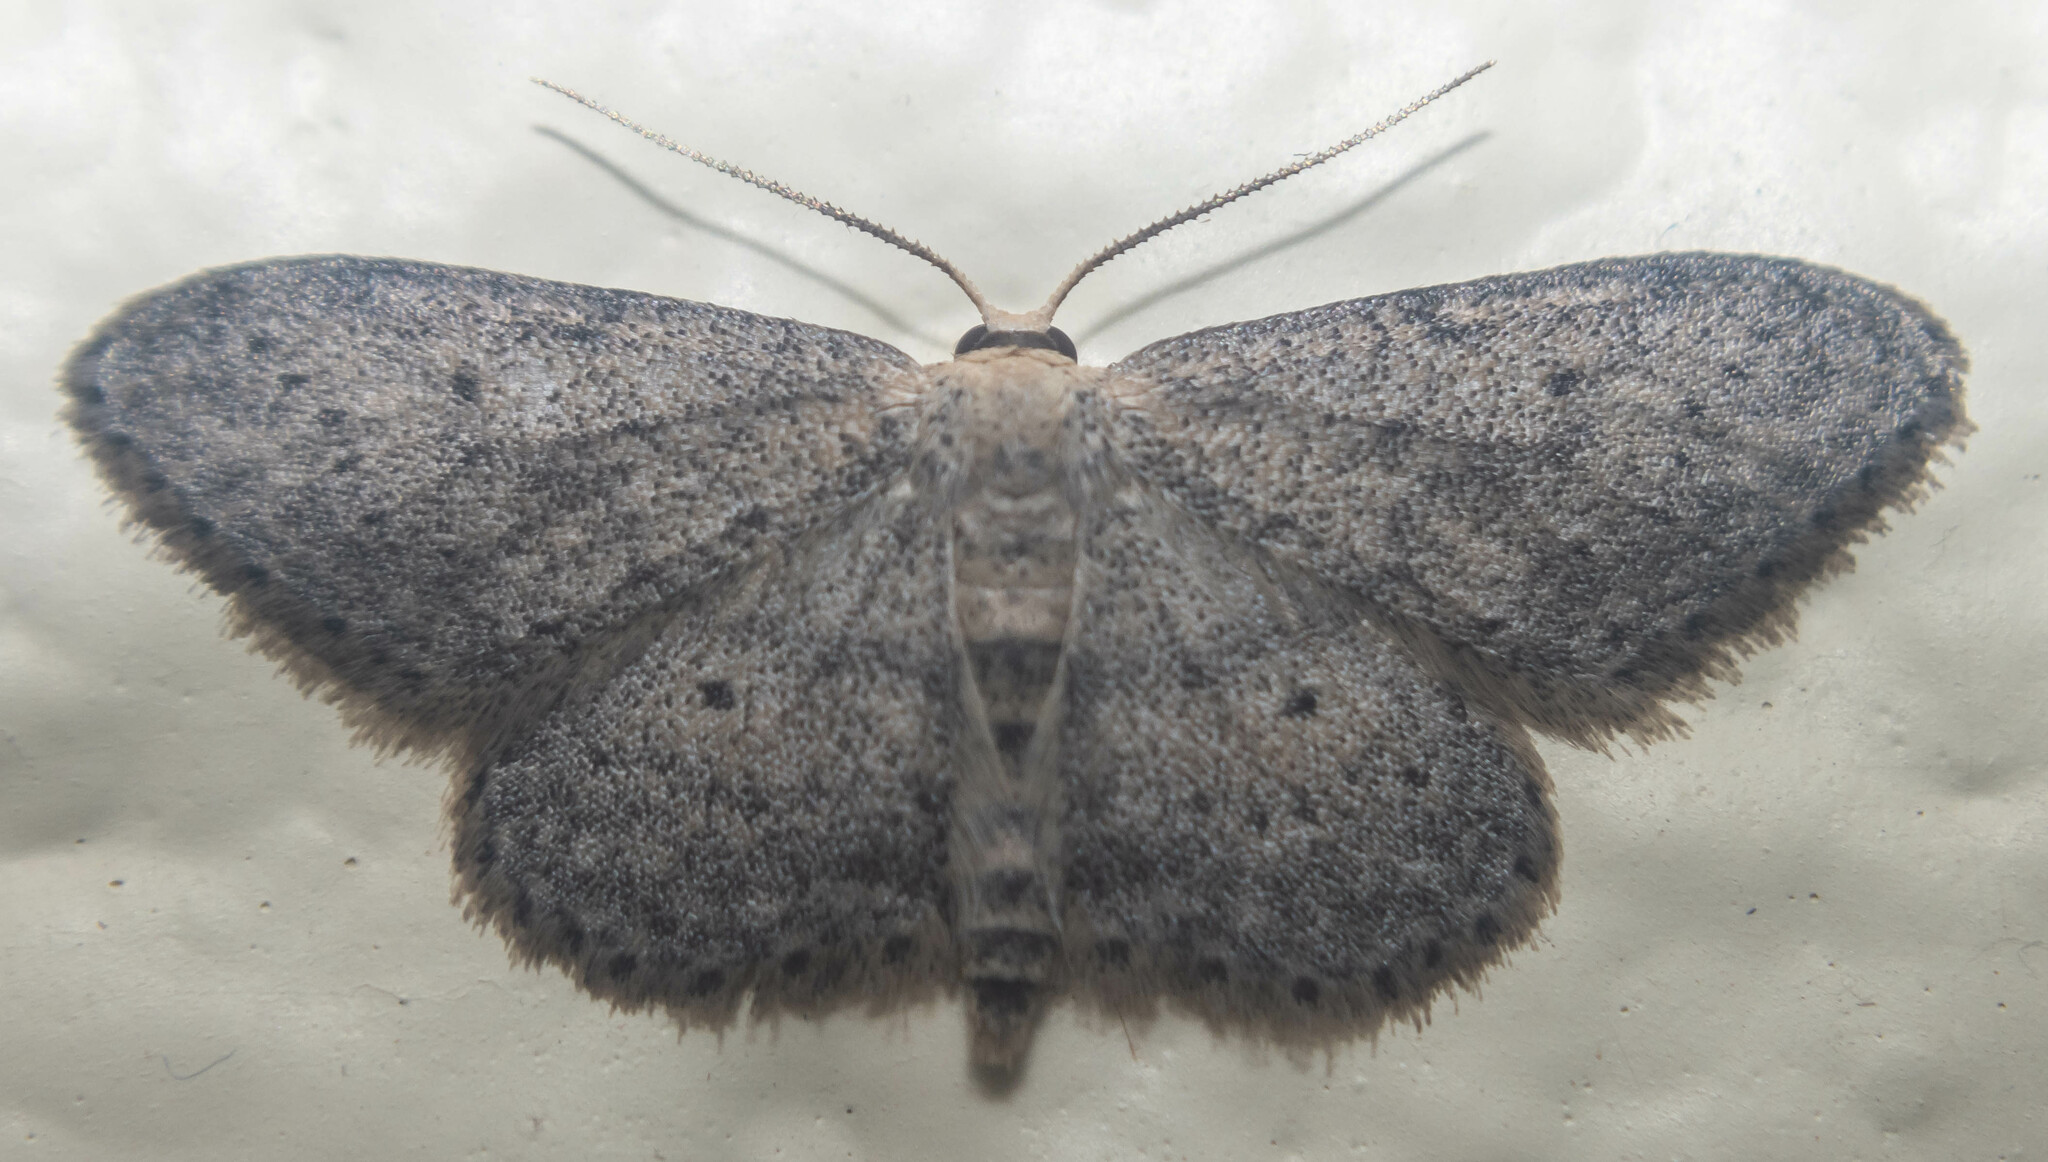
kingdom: Animalia
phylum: Arthropoda
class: Insecta
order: Lepidoptera
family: Geometridae
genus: Idaea
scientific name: Idaea seriata
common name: Small dusty wave
